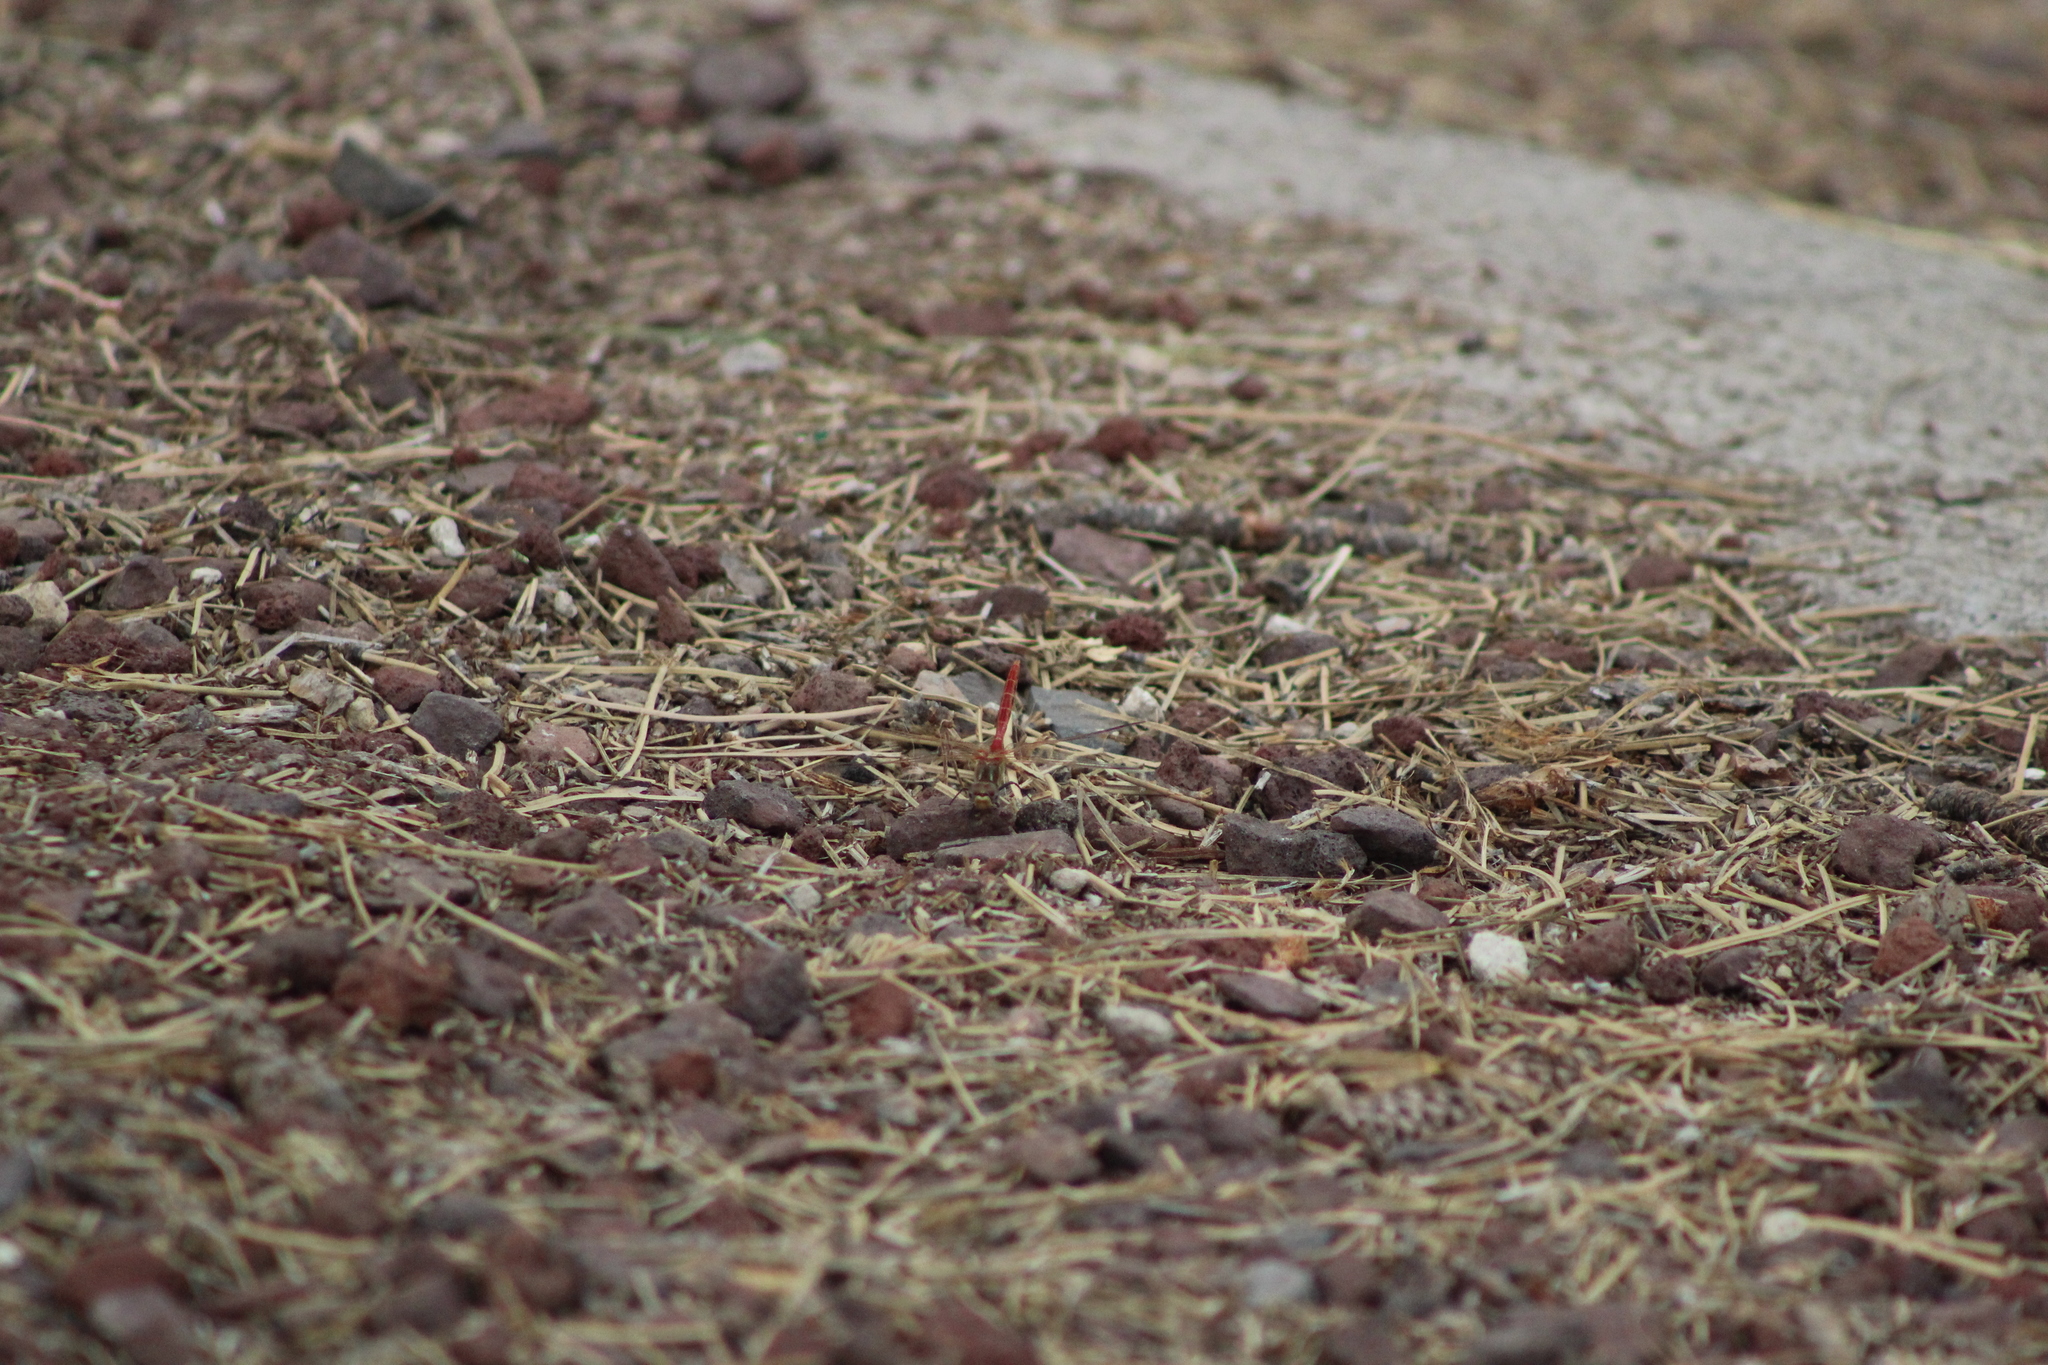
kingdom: Animalia
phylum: Arthropoda
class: Insecta
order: Odonata
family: Libellulidae
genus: Sympetrum
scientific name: Sympetrum pallipes
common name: Striped meadowhawk
